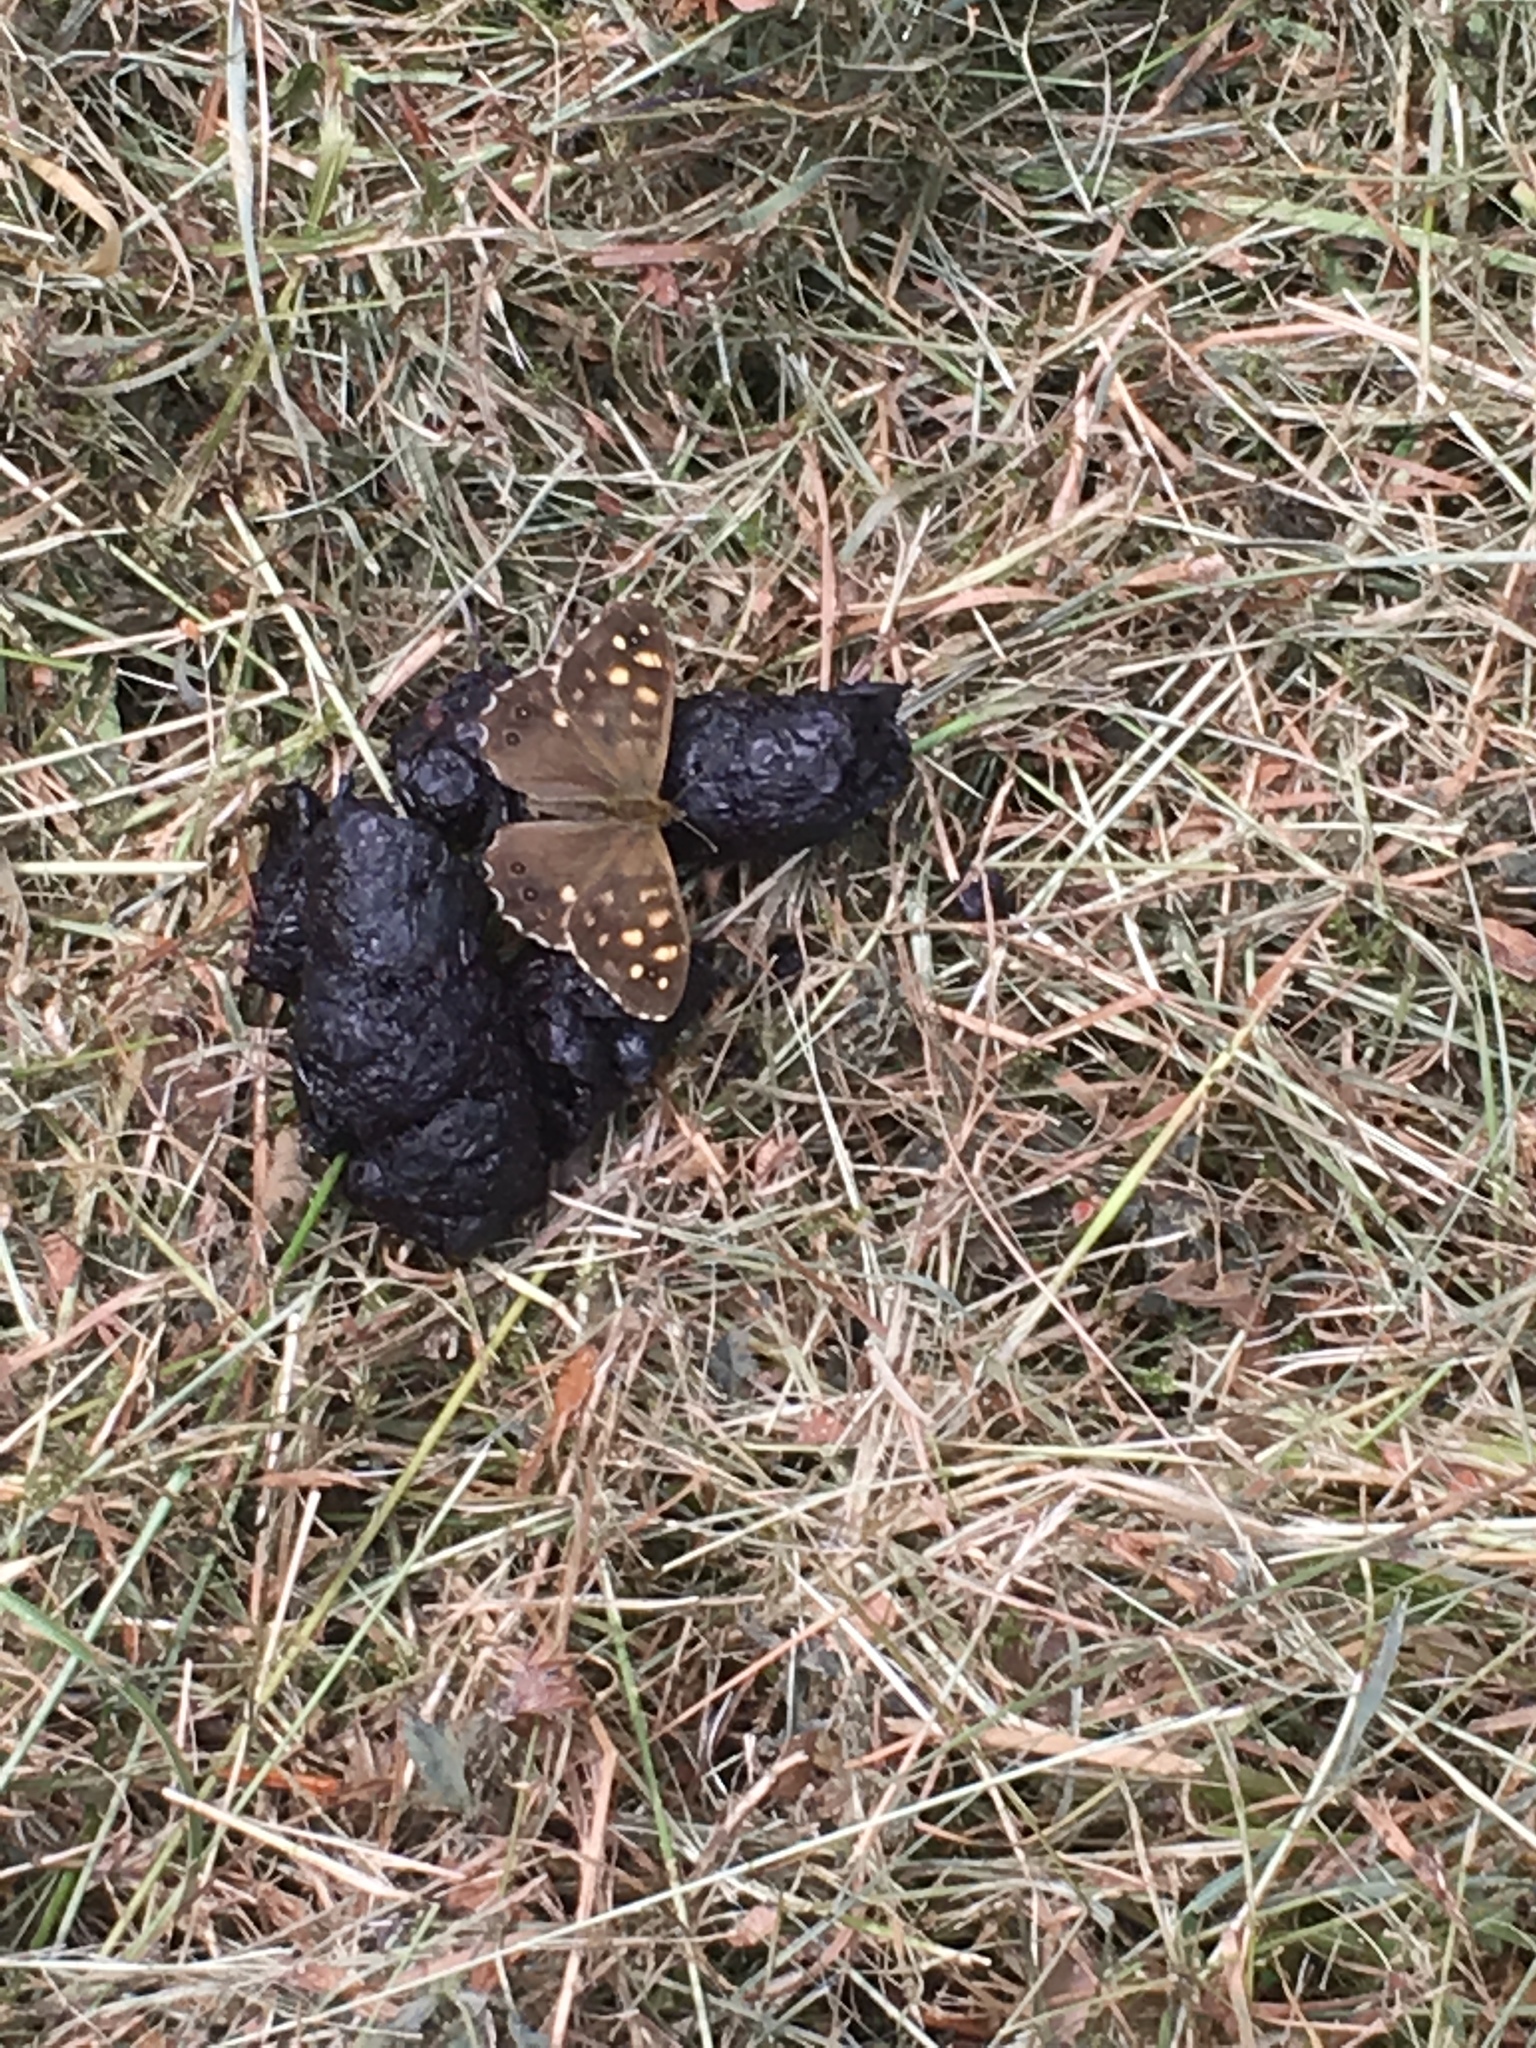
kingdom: Animalia
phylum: Arthropoda
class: Insecta
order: Lepidoptera
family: Nymphalidae
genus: Pararge
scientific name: Pararge aegeria
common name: Speckled wood
